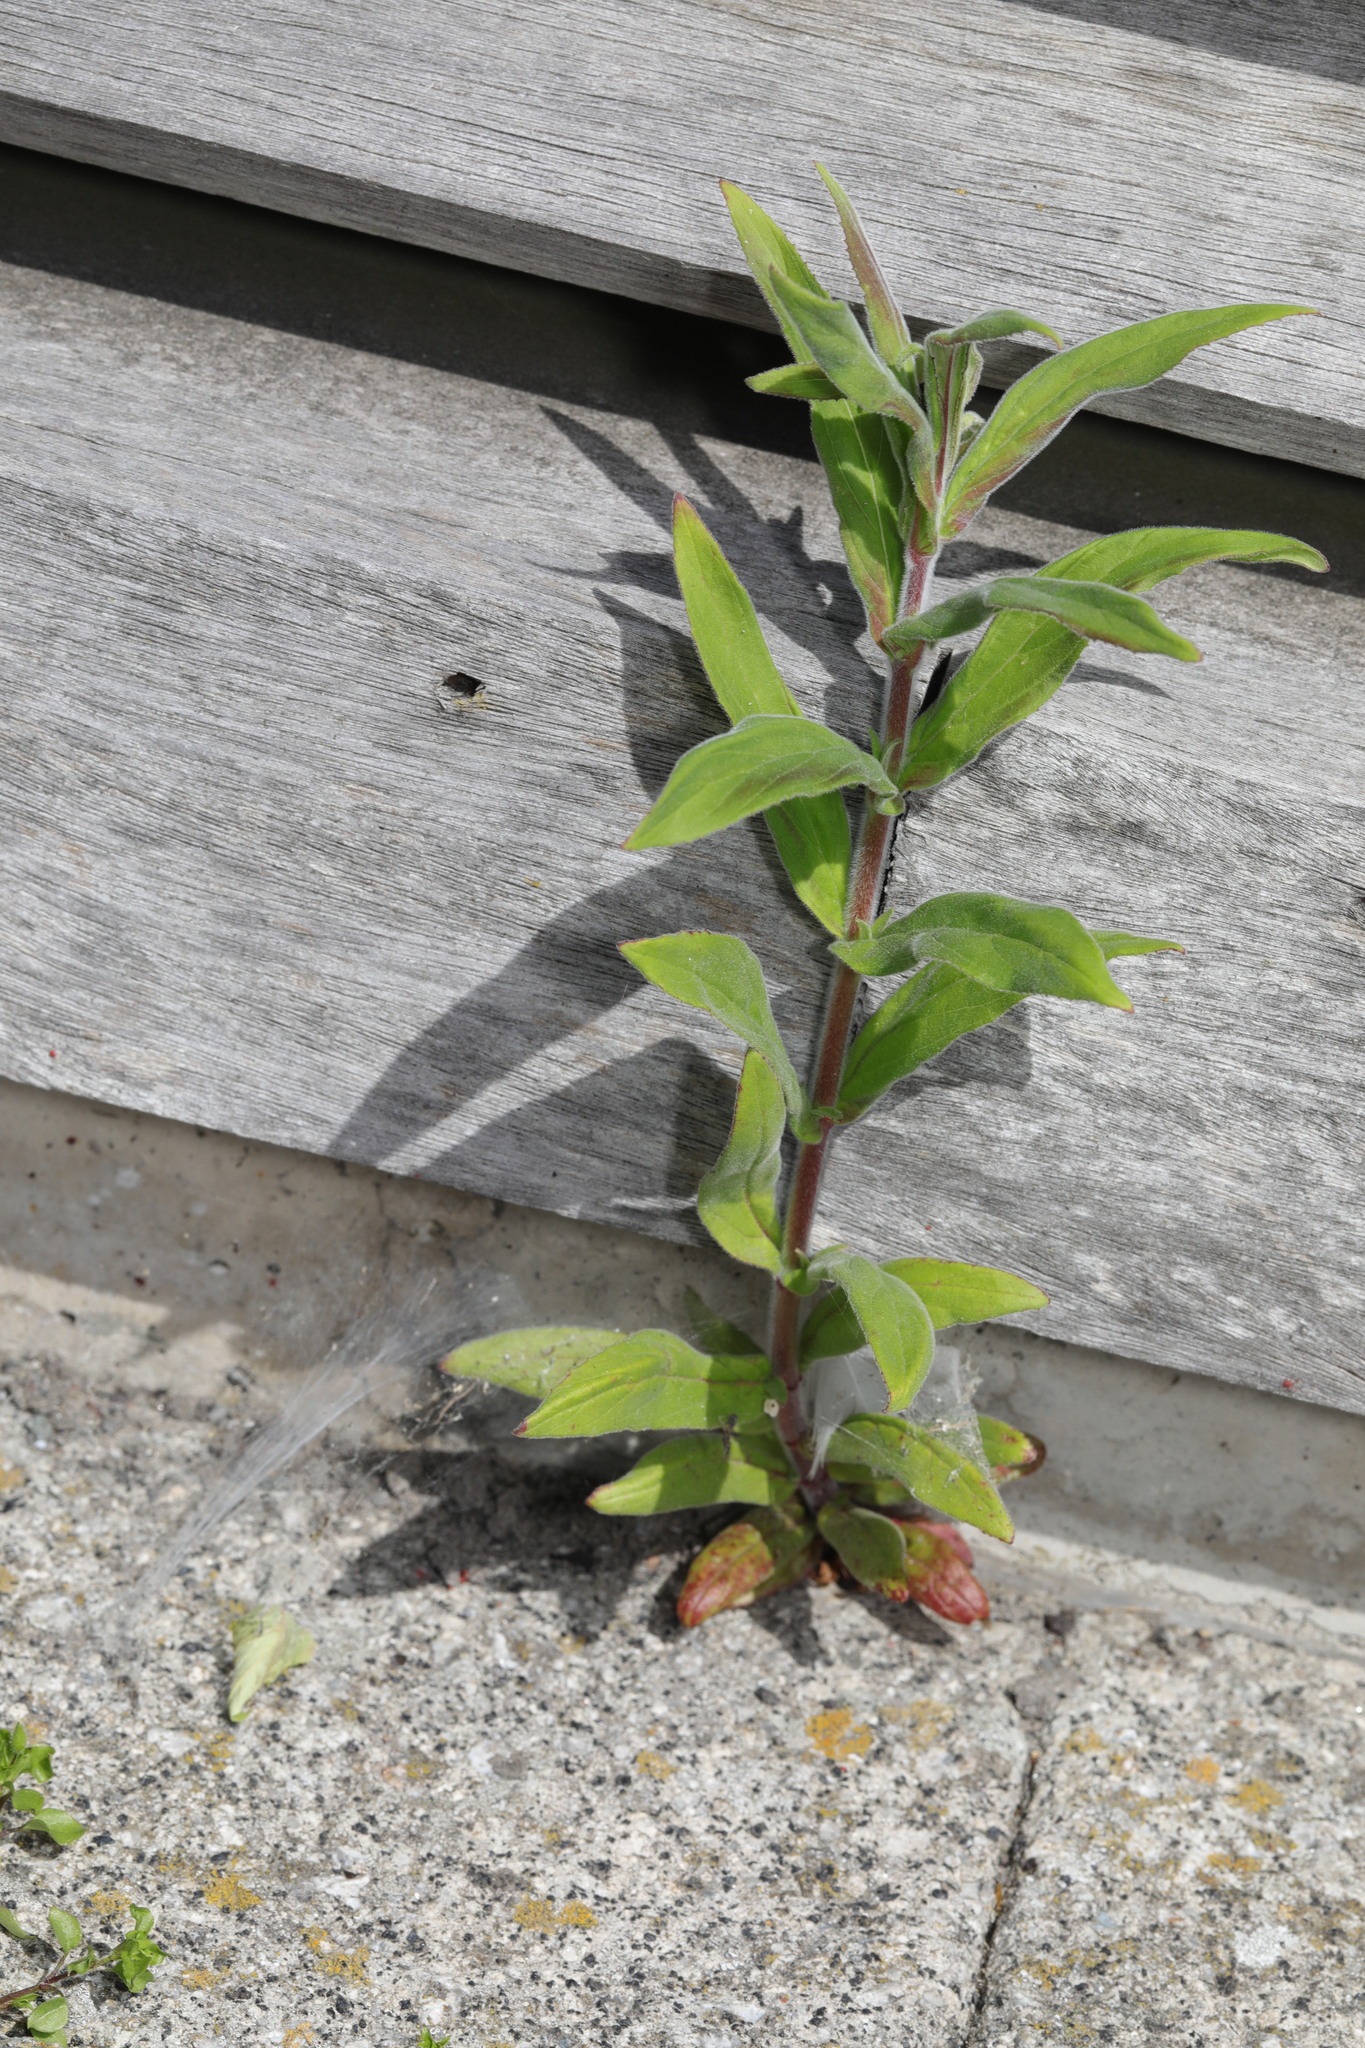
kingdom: Plantae
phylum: Tracheophyta
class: Magnoliopsida
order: Myrtales
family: Onagraceae
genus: Epilobium
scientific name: Epilobium parviflorum
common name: Hoary willowherb
